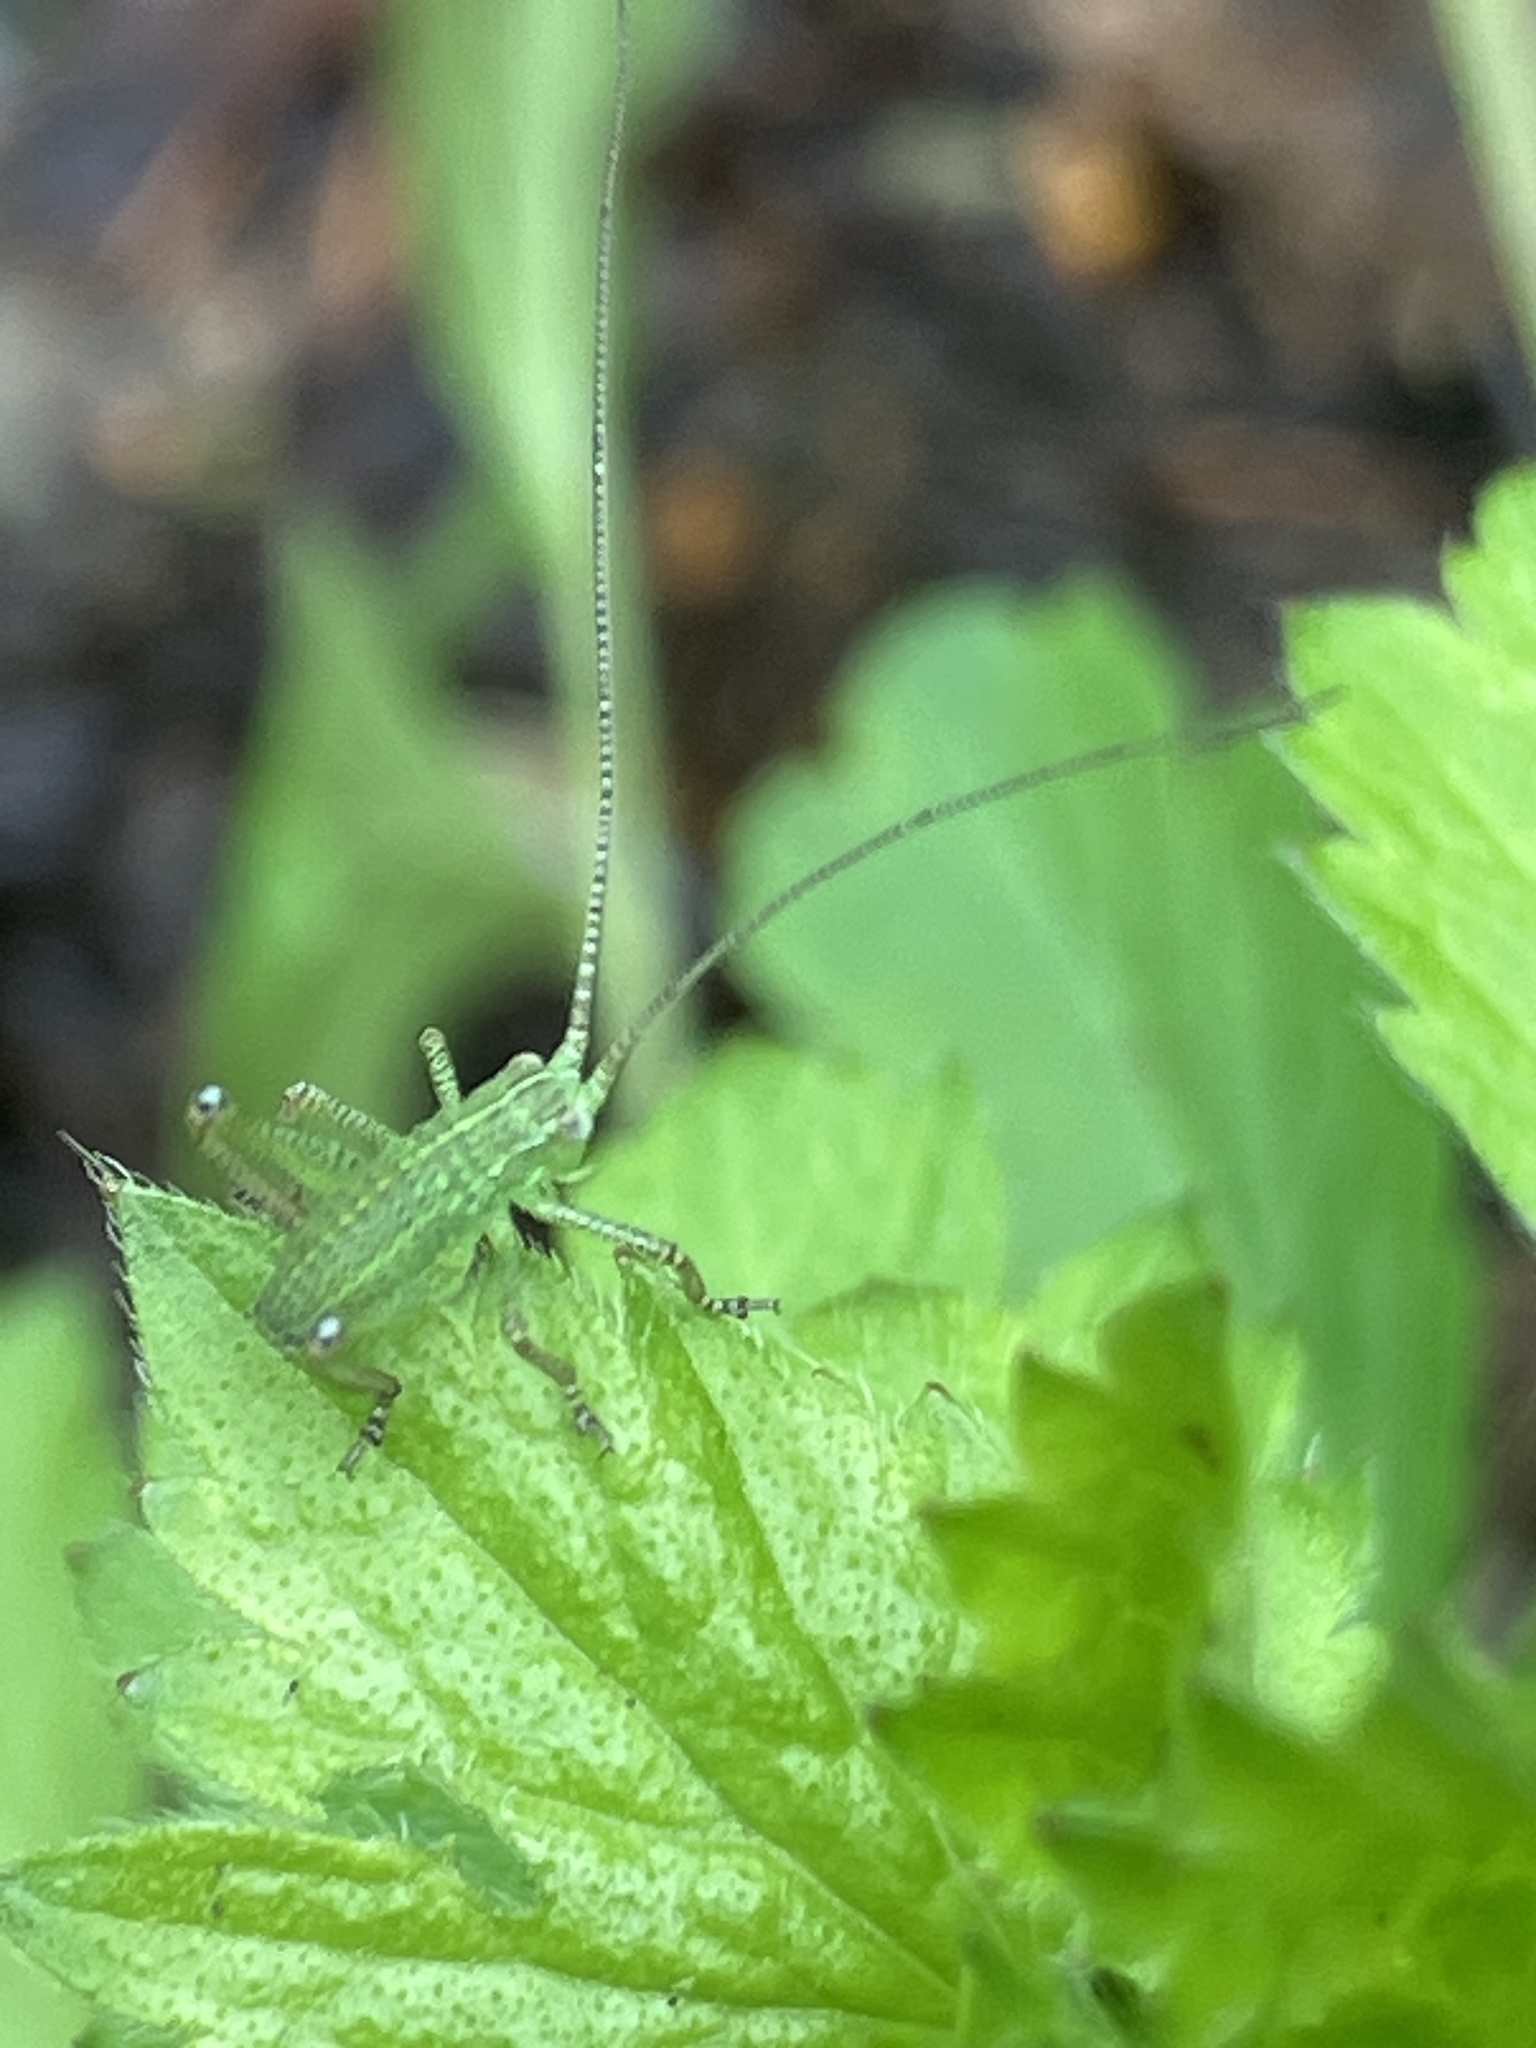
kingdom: Animalia
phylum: Arthropoda
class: Insecta
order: Orthoptera
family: Tettigoniidae
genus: Barbitistes
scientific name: Barbitistes serricauda
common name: Saw-tailed bush-cricket
